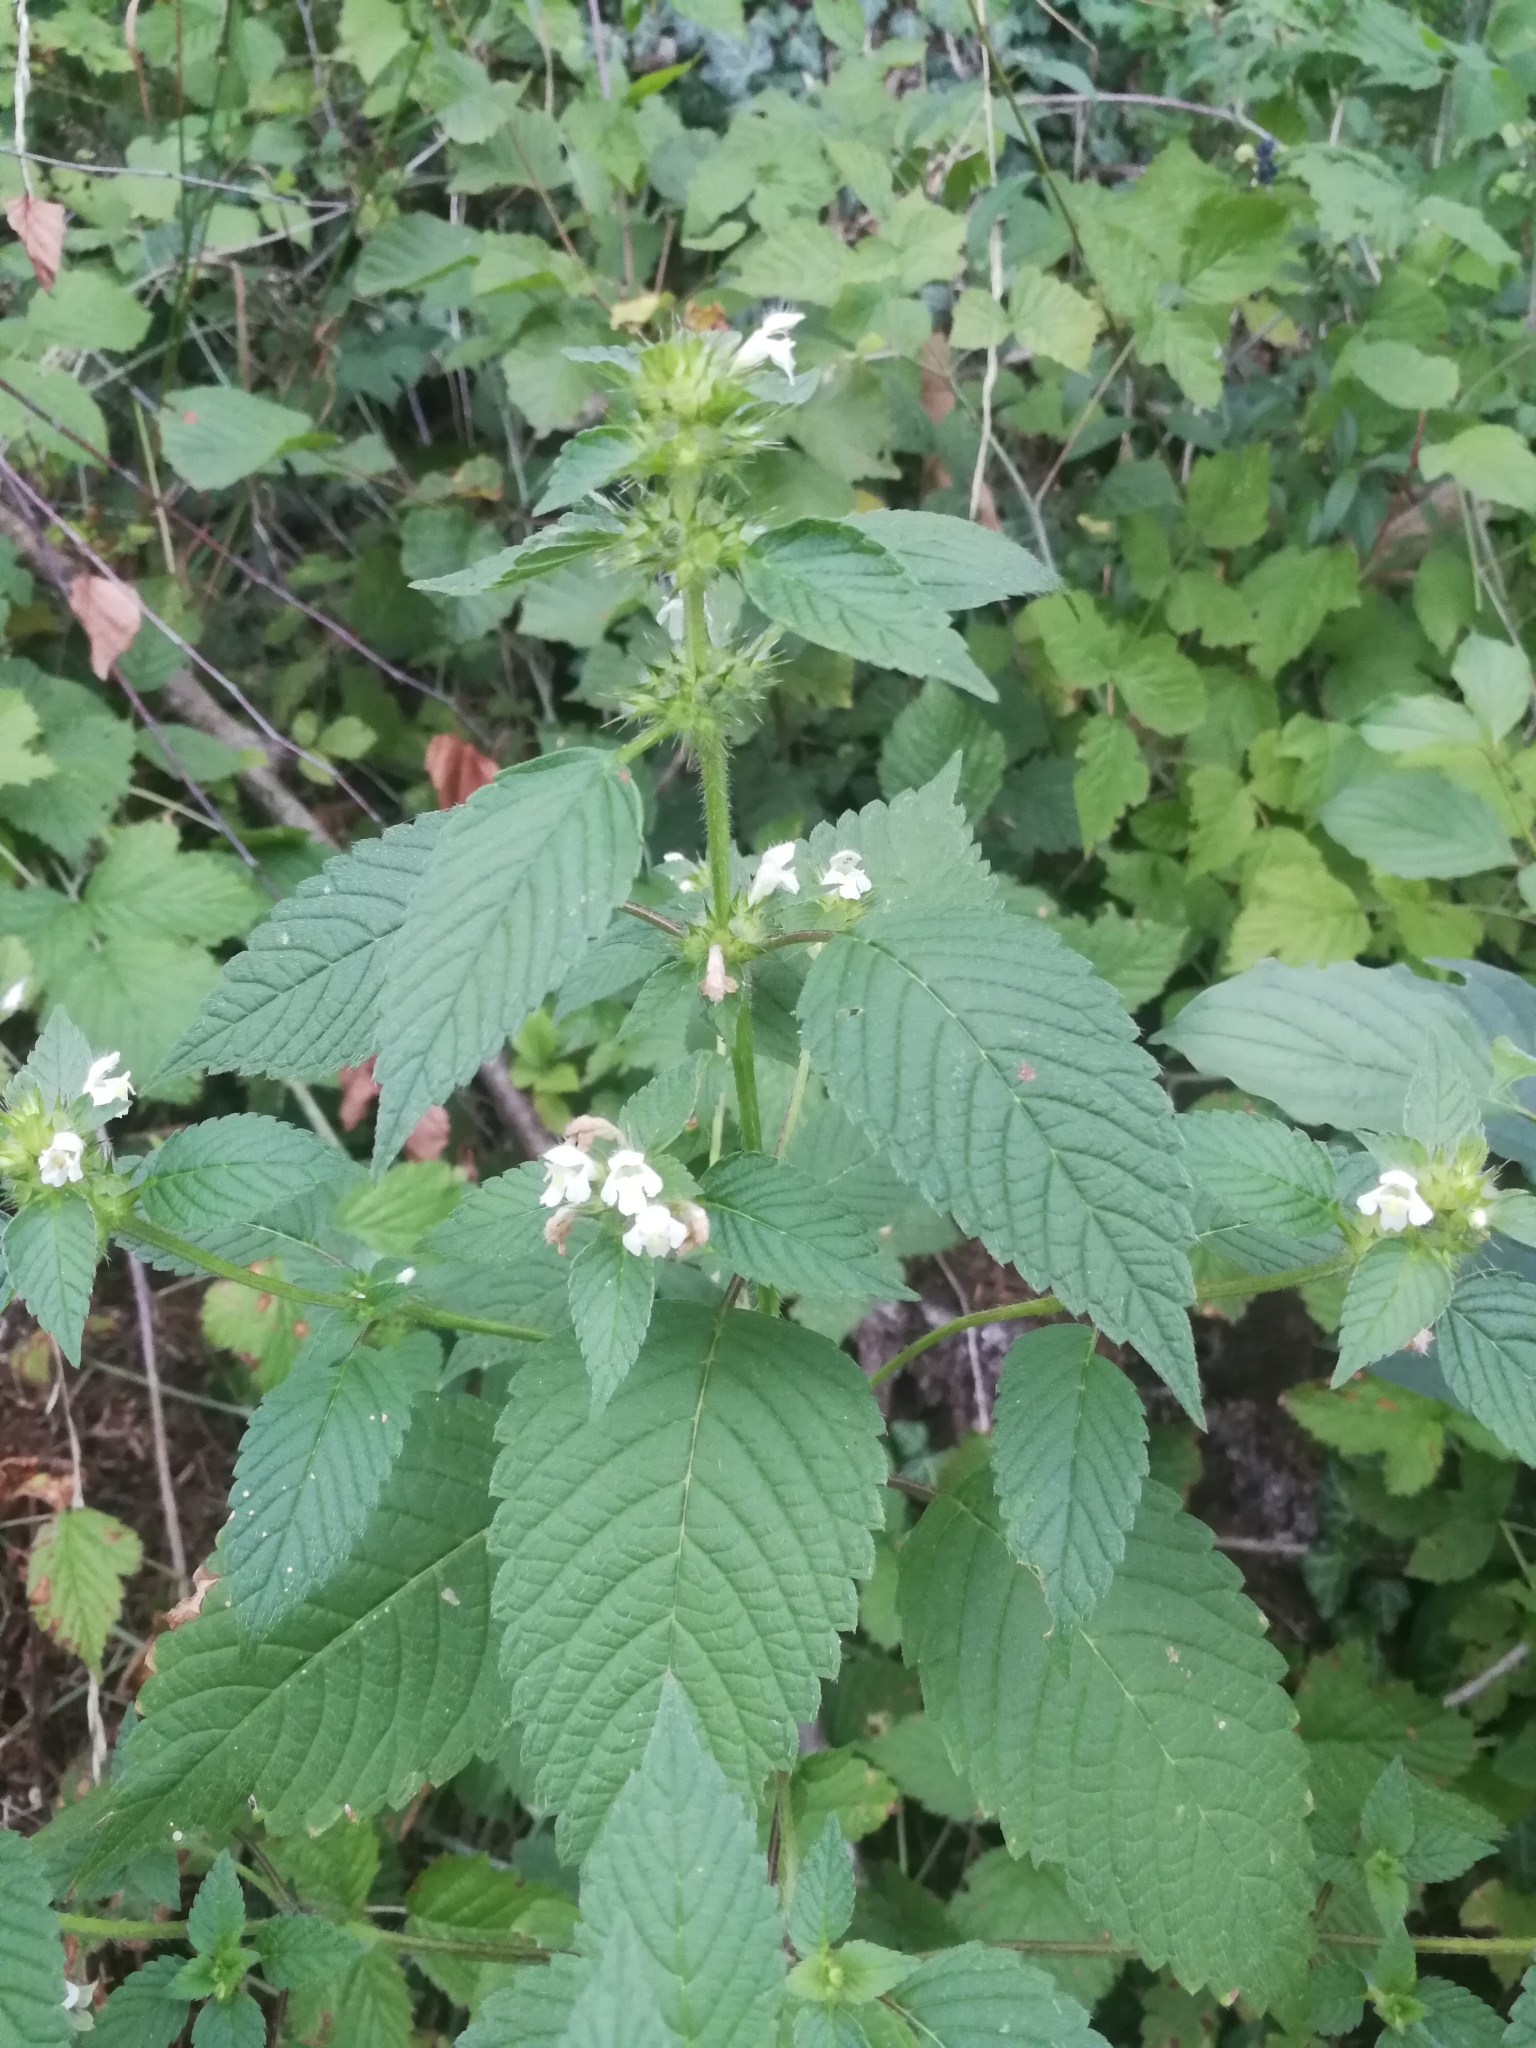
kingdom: Plantae
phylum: Tracheophyta
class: Magnoliopsida
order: Lamiales
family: Lamiaceae
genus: Galeopsis
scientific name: Galeopsis tetrahit
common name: Common hemp-nettle
